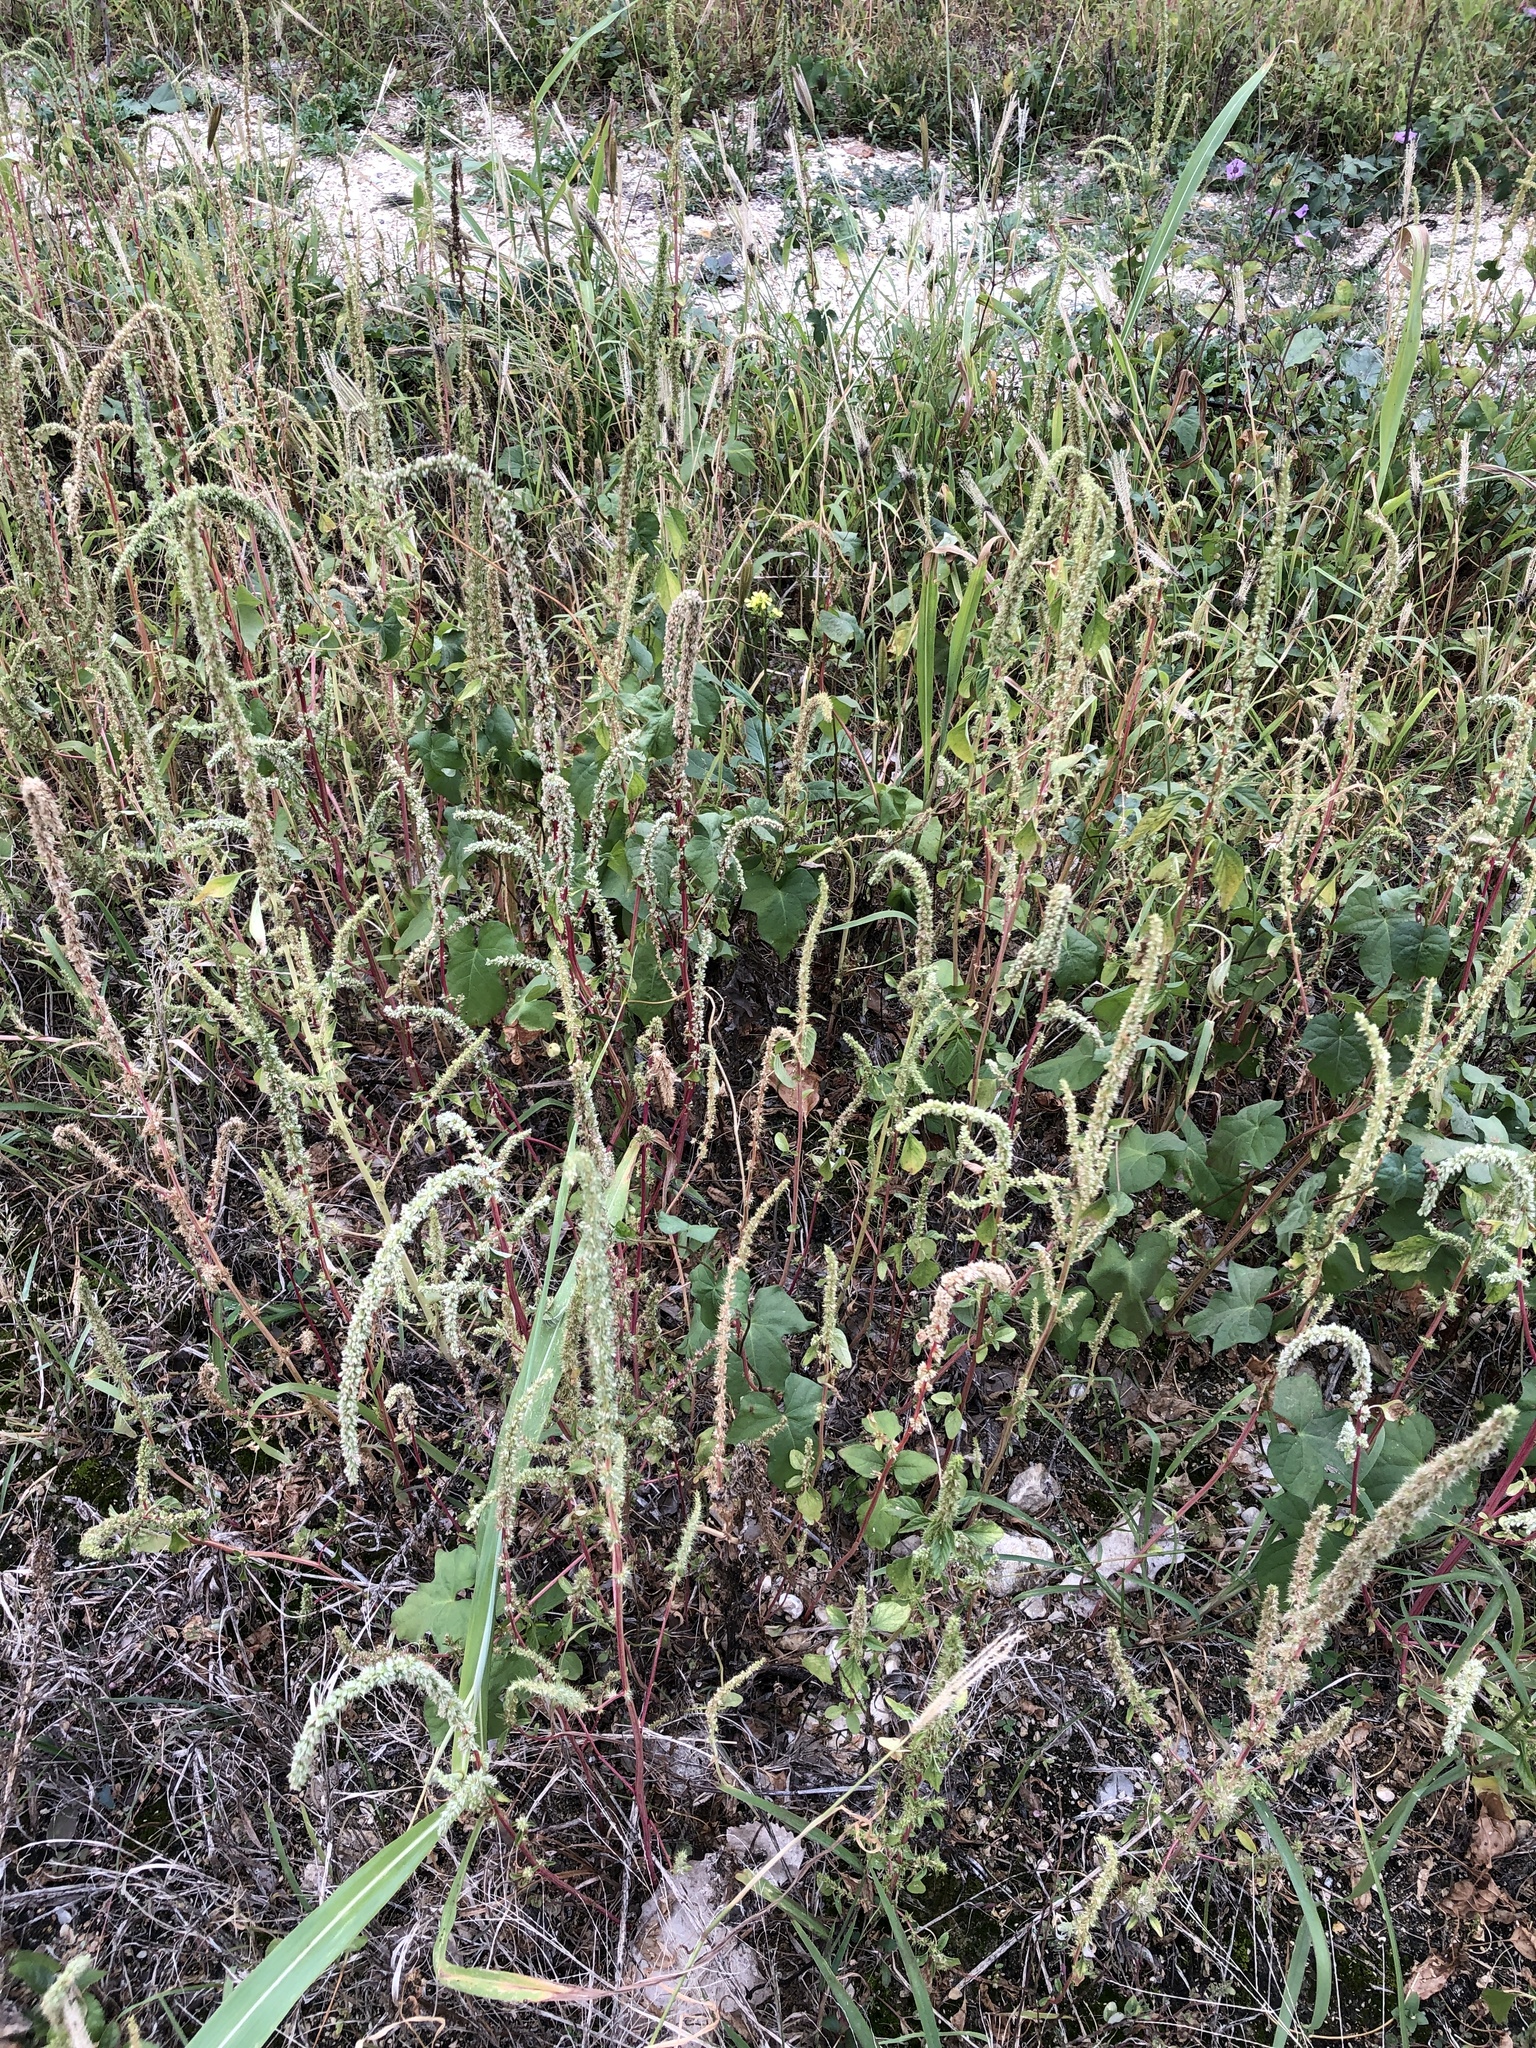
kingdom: Plantae
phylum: Tracheophyta
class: Magnoliopsida
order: Caryophyllales
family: Amaranthaceae
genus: Amaranthus
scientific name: Amaranthus palmeri
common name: Dioecious amaranth
